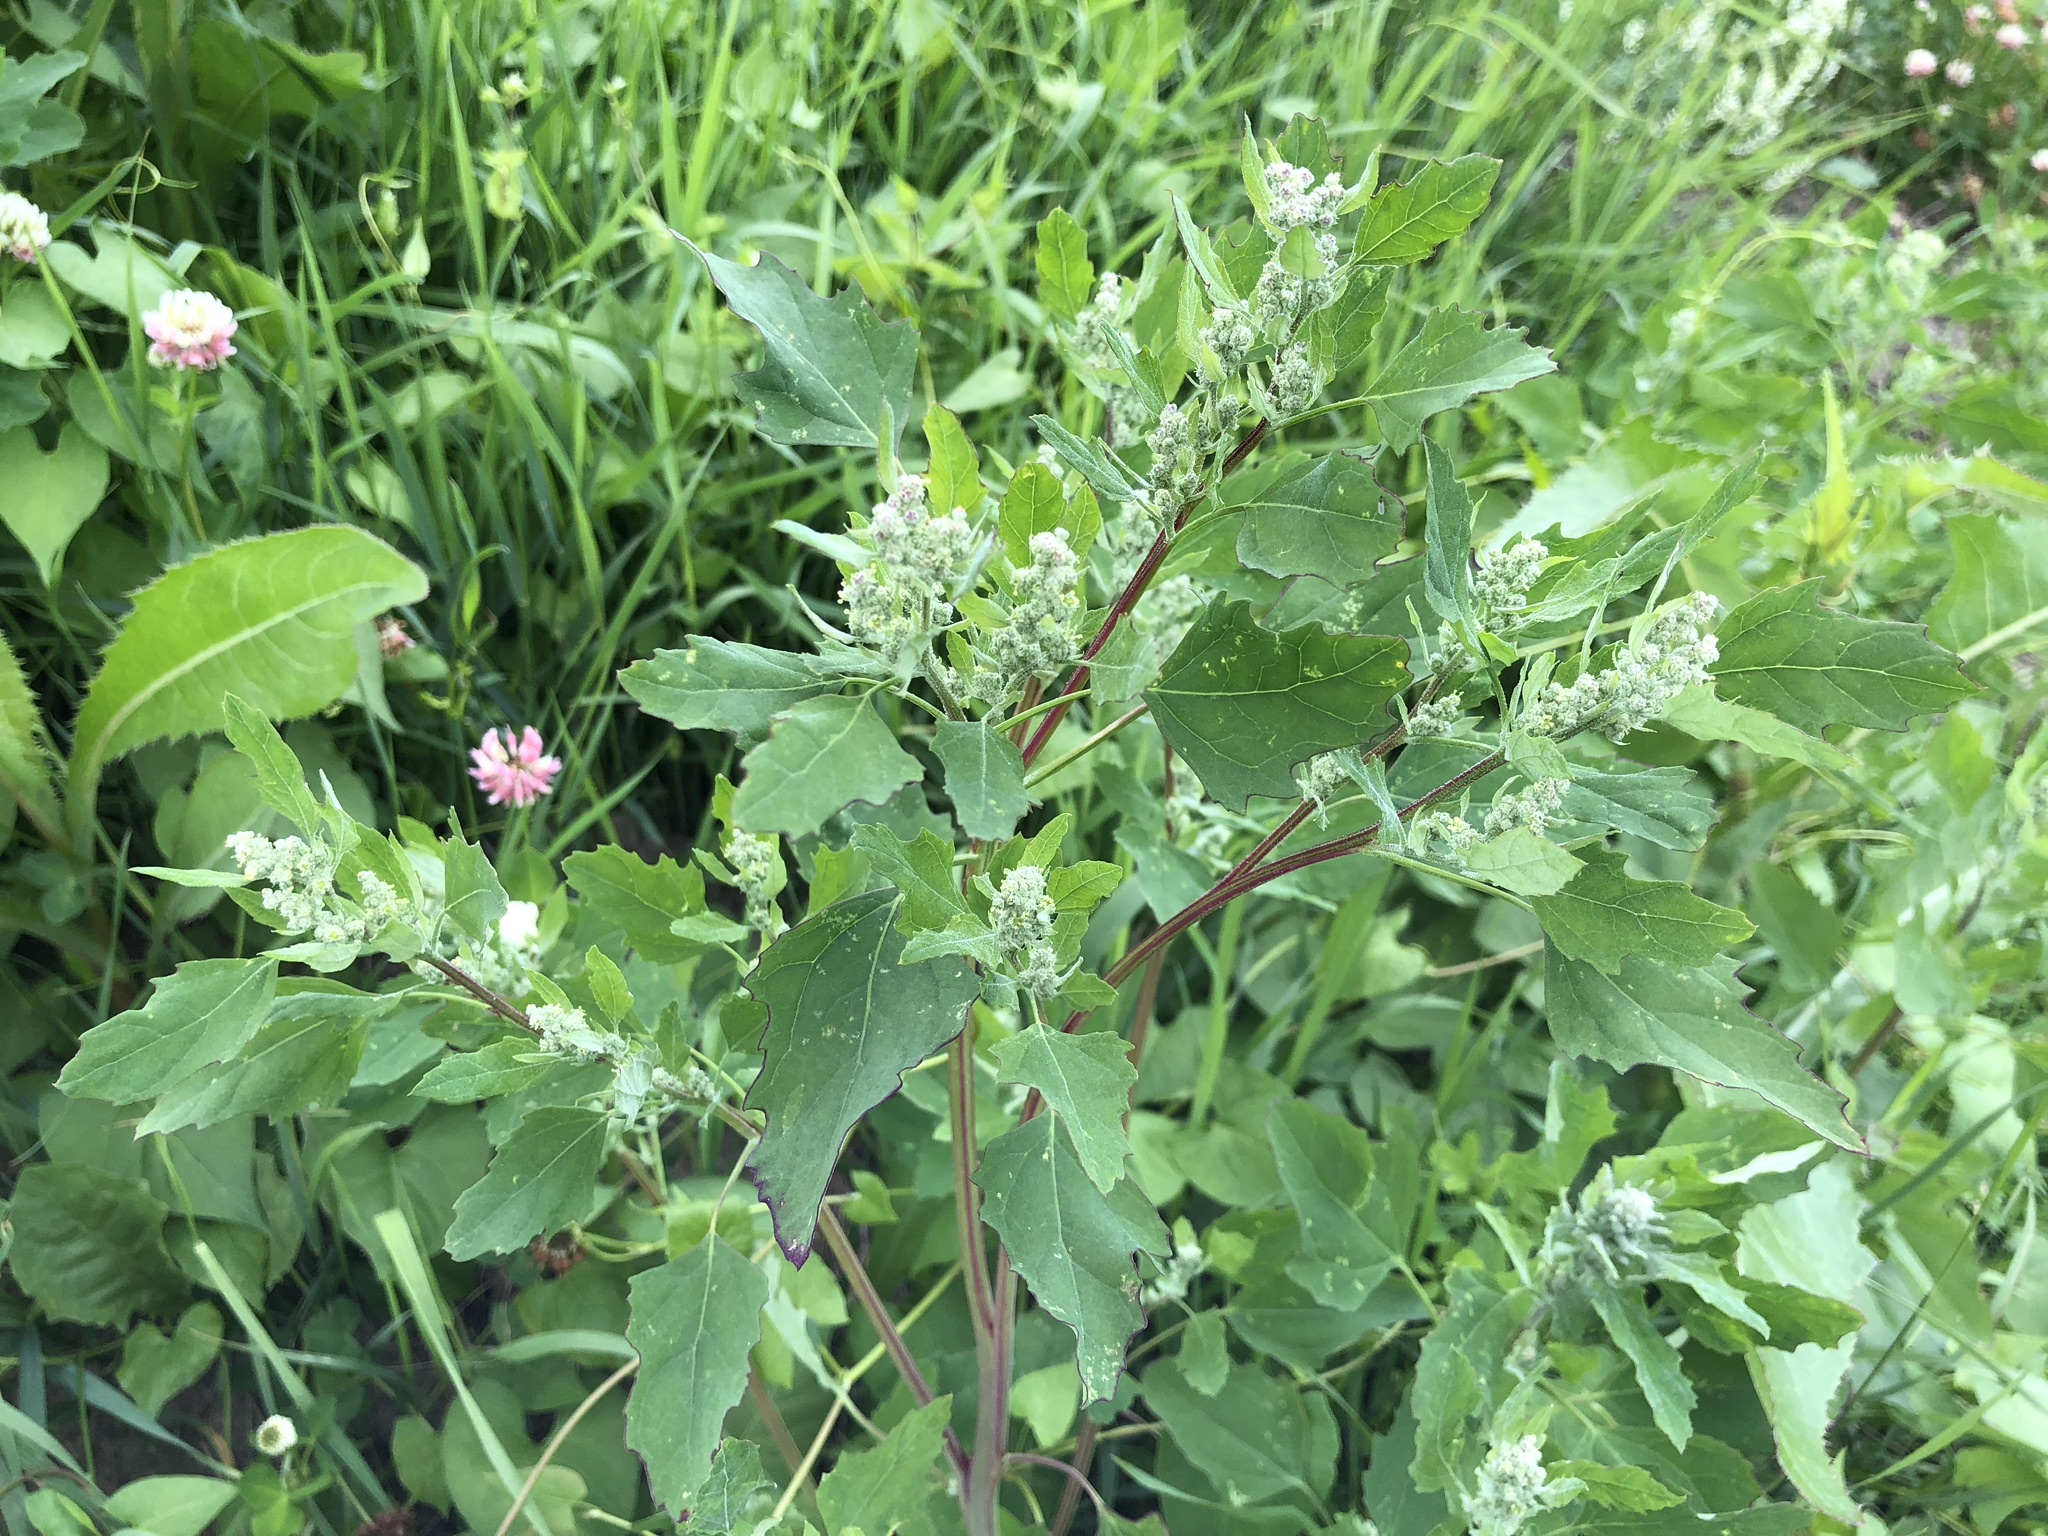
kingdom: Plantae
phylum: Tracheophyta
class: Magnoliopsida
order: Caryophyllales
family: Amaranthaceae
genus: Chenopodium
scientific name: Chenopodium album
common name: Fat-hen
